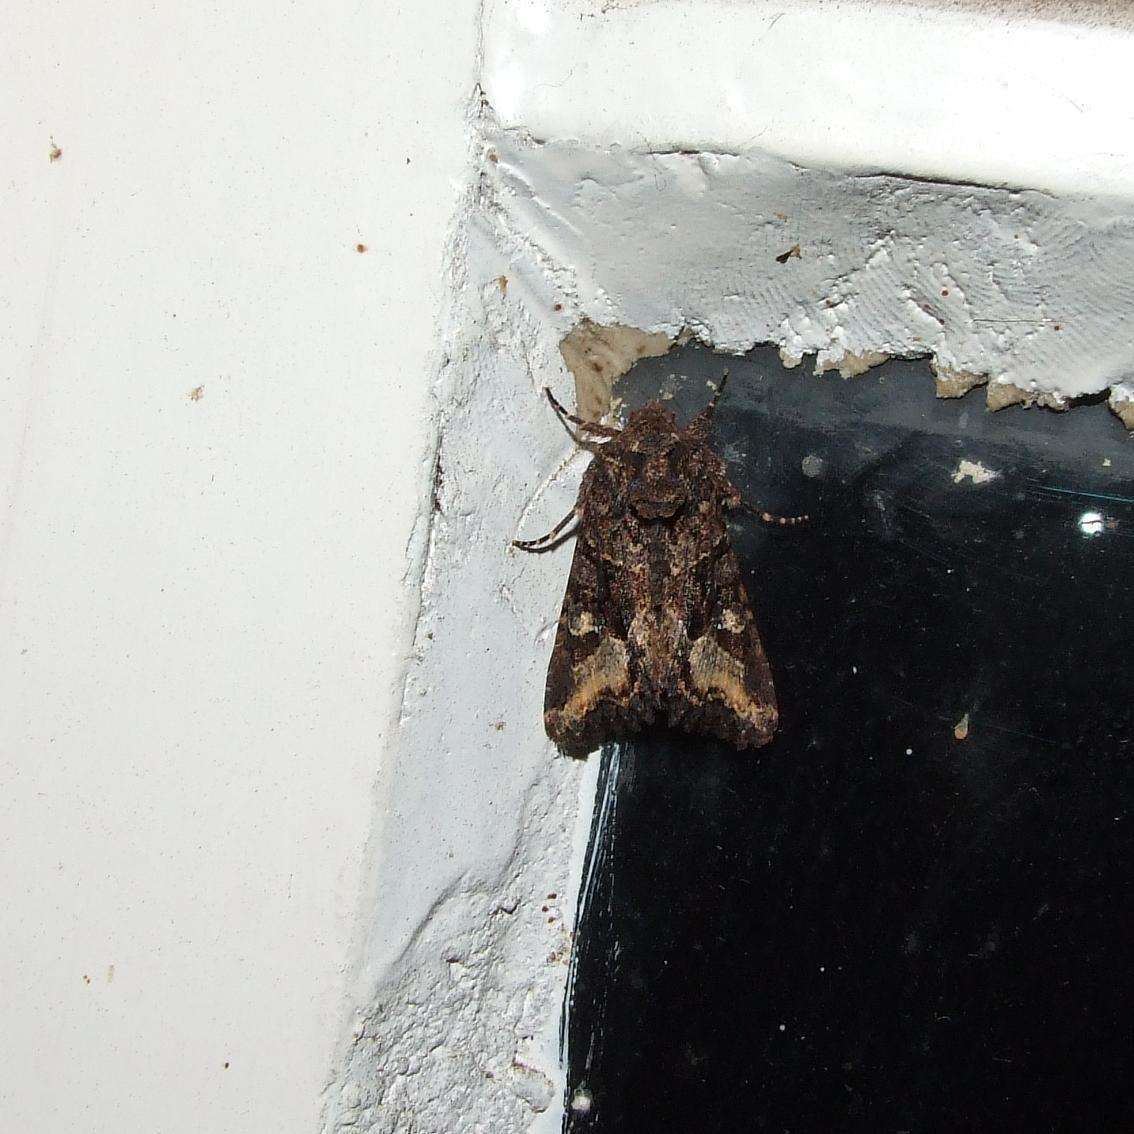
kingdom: Animalia
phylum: Arthropoda
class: Insecta
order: Lepidoptera
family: Noctuidae
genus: Neumichtis
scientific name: Neumichtis saliaris
